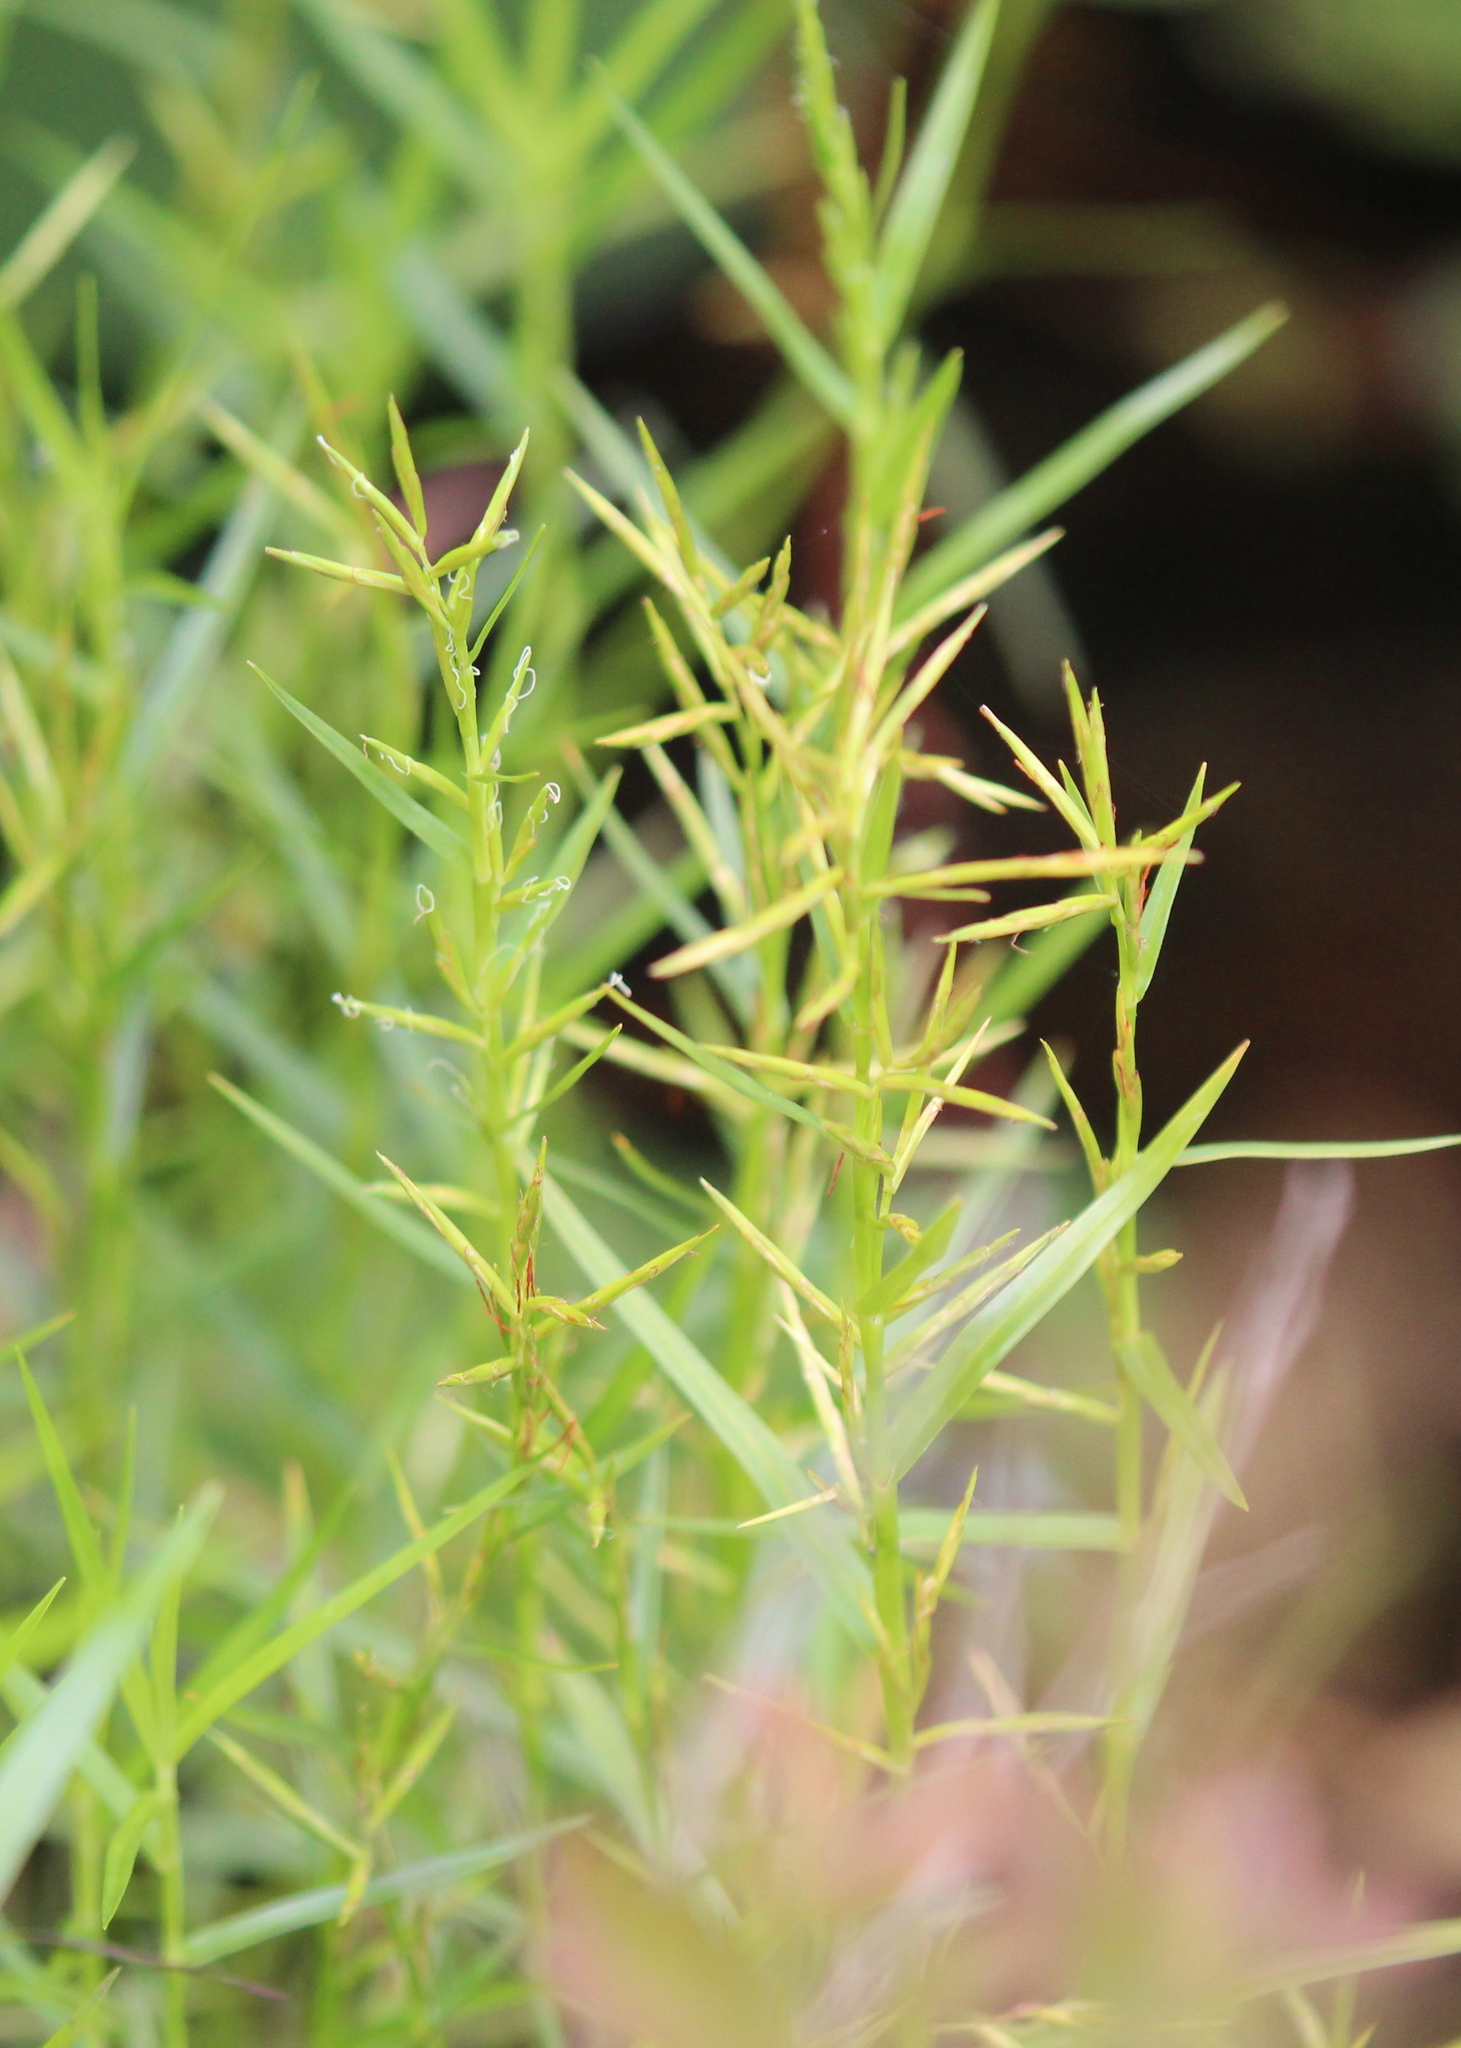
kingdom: Plantae
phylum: Tracheophyta
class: Liliopsida
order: Poales
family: Cyperaceae
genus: Dulichium
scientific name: Dulichium arundinaceum
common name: Three-way sedge
